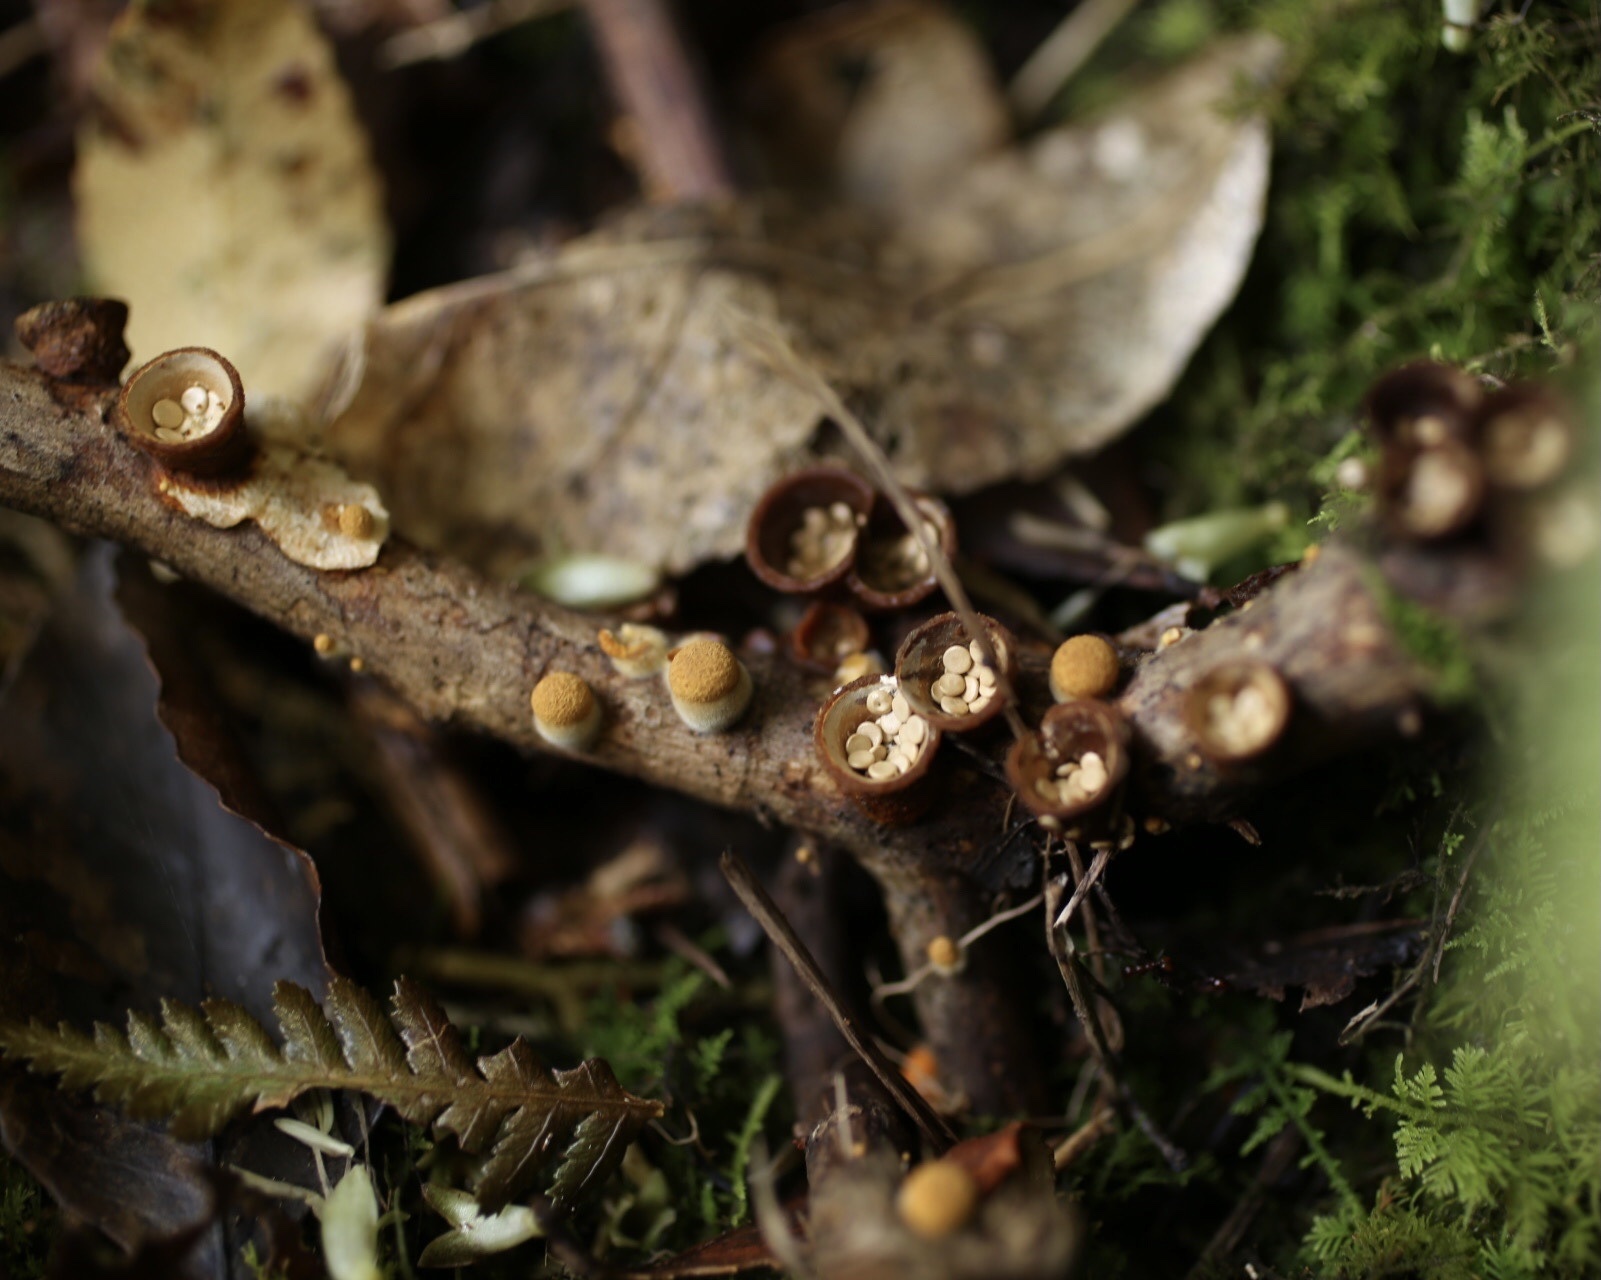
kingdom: Fungi
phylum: Basidiomycota
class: Agaricomycetes
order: Agaricales
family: Nidulariaceae
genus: Crucibulum
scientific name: Crucibulum simile
